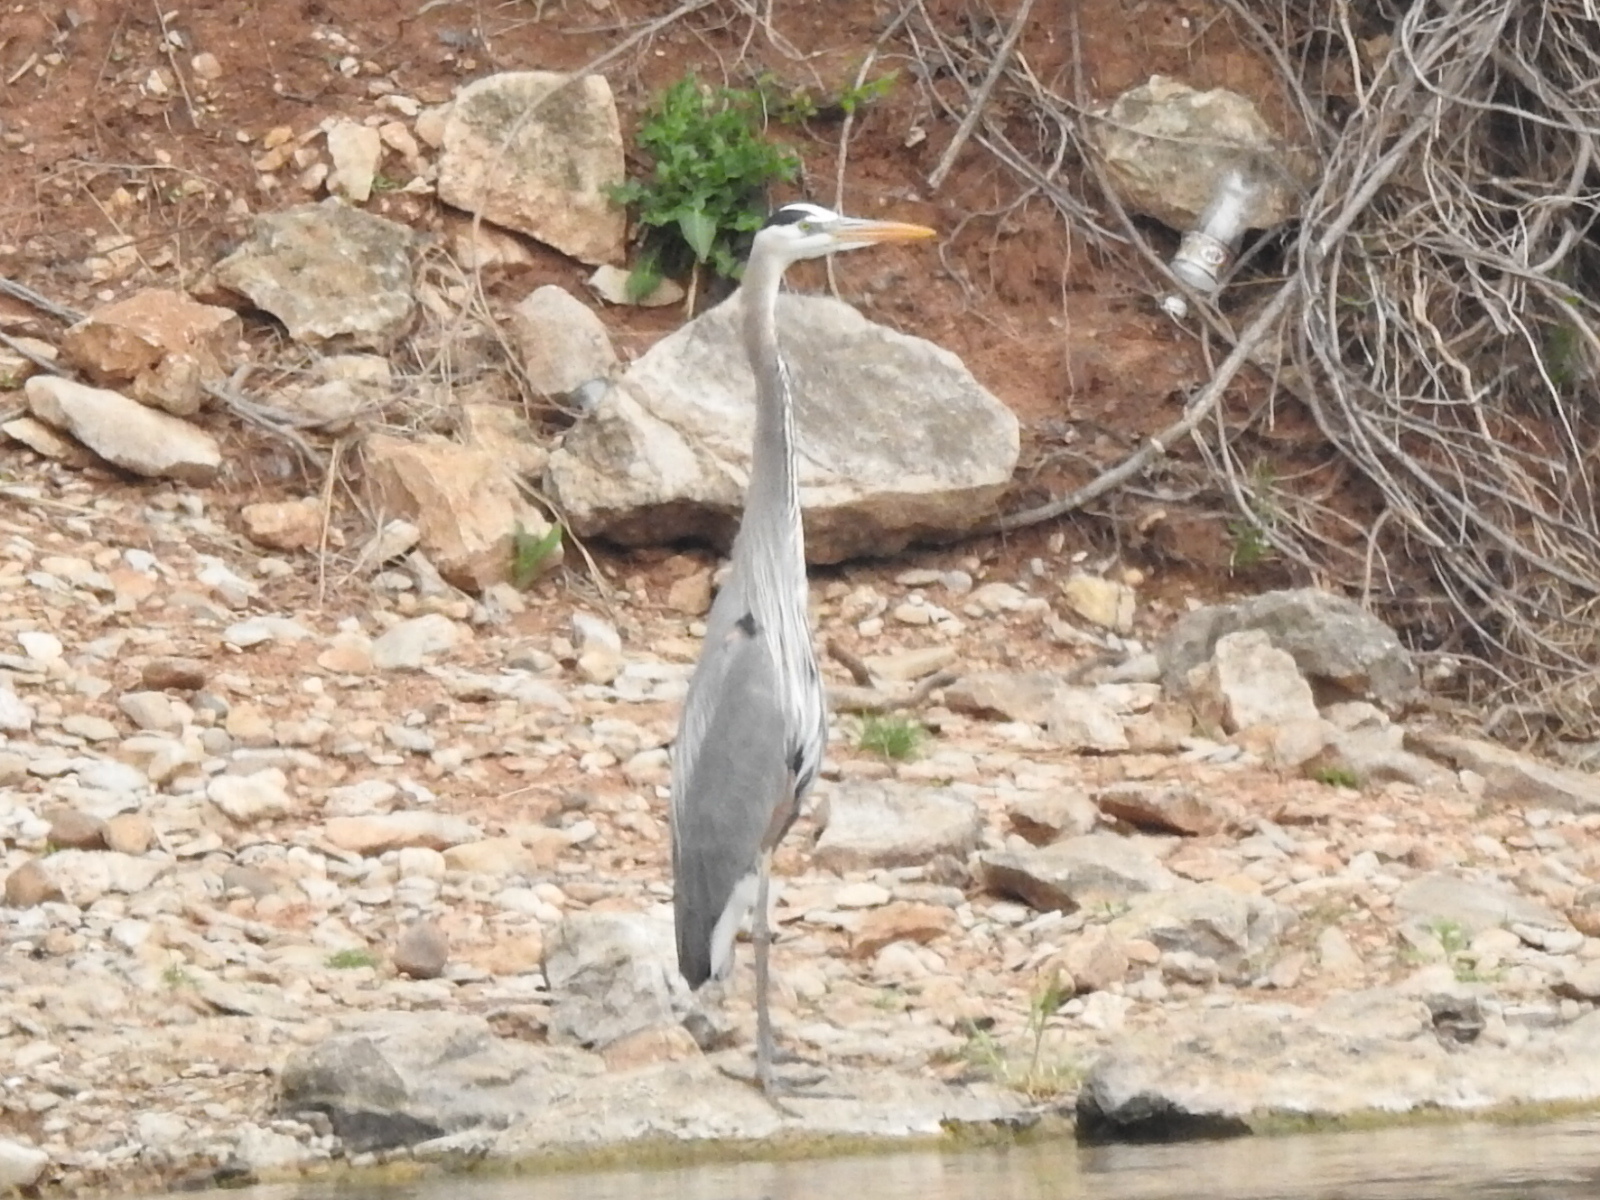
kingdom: Animalia
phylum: Chordata
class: Aves
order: Pelecaniformes
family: Ardeidae
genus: Ardea
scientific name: Ardea herodias
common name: Great blue heron
